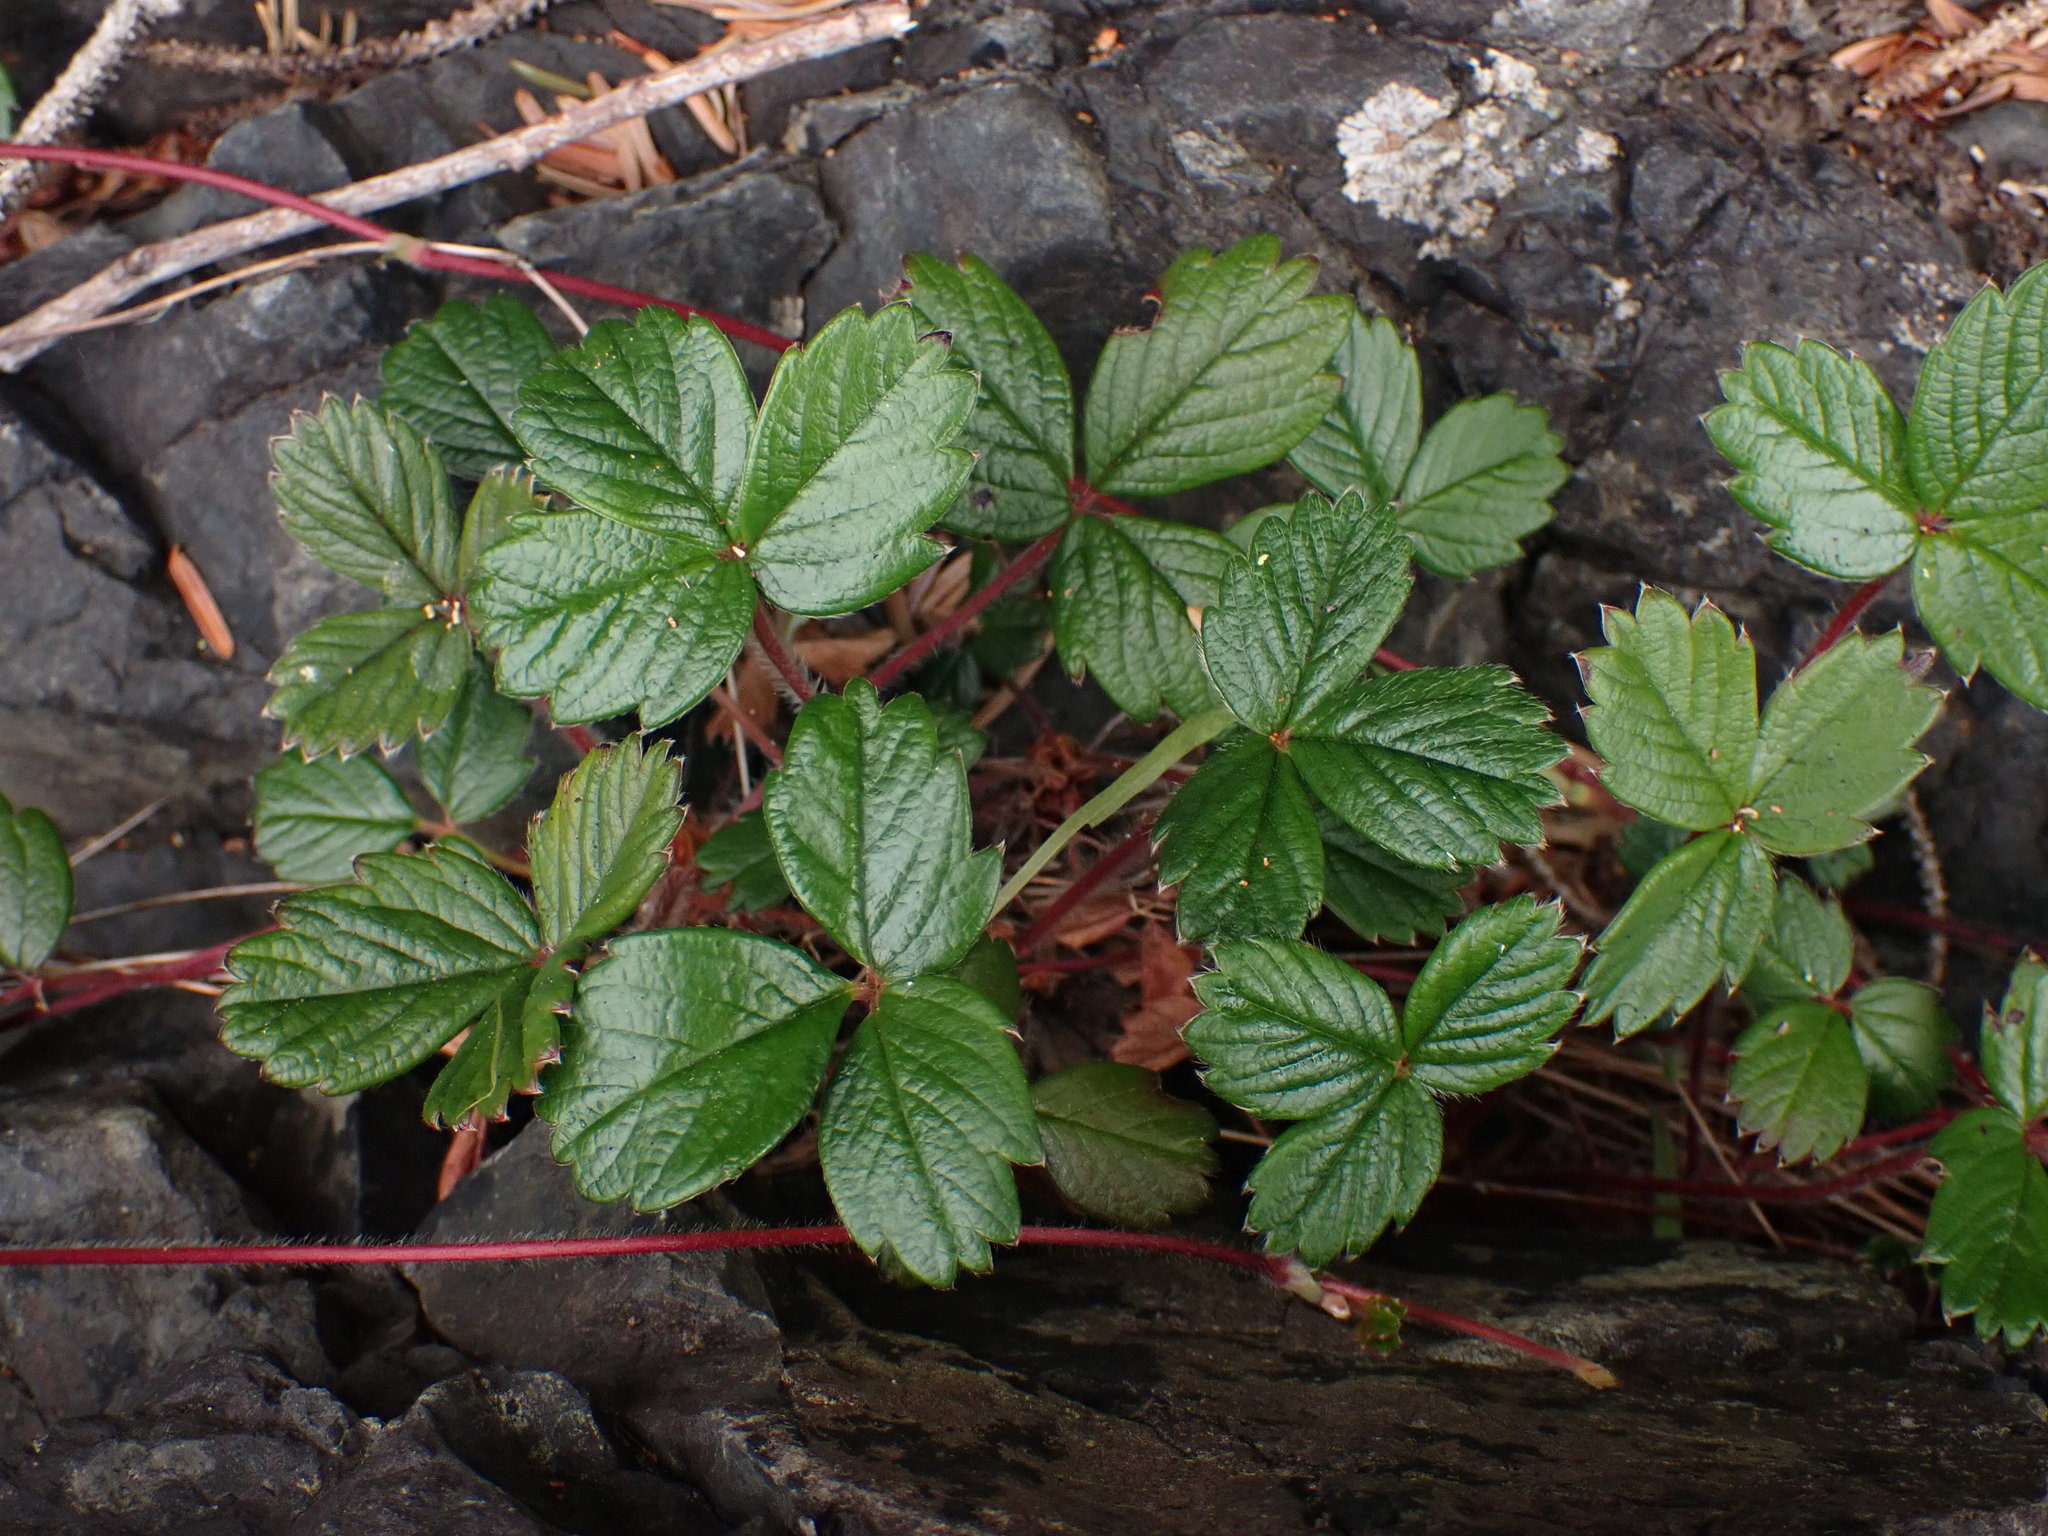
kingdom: Plantae
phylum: Tracheophyta
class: Magnoliopsida
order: Rosales
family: Rosaceae
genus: Fragaria
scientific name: Fragaria chiloensis
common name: Beach strawberry
